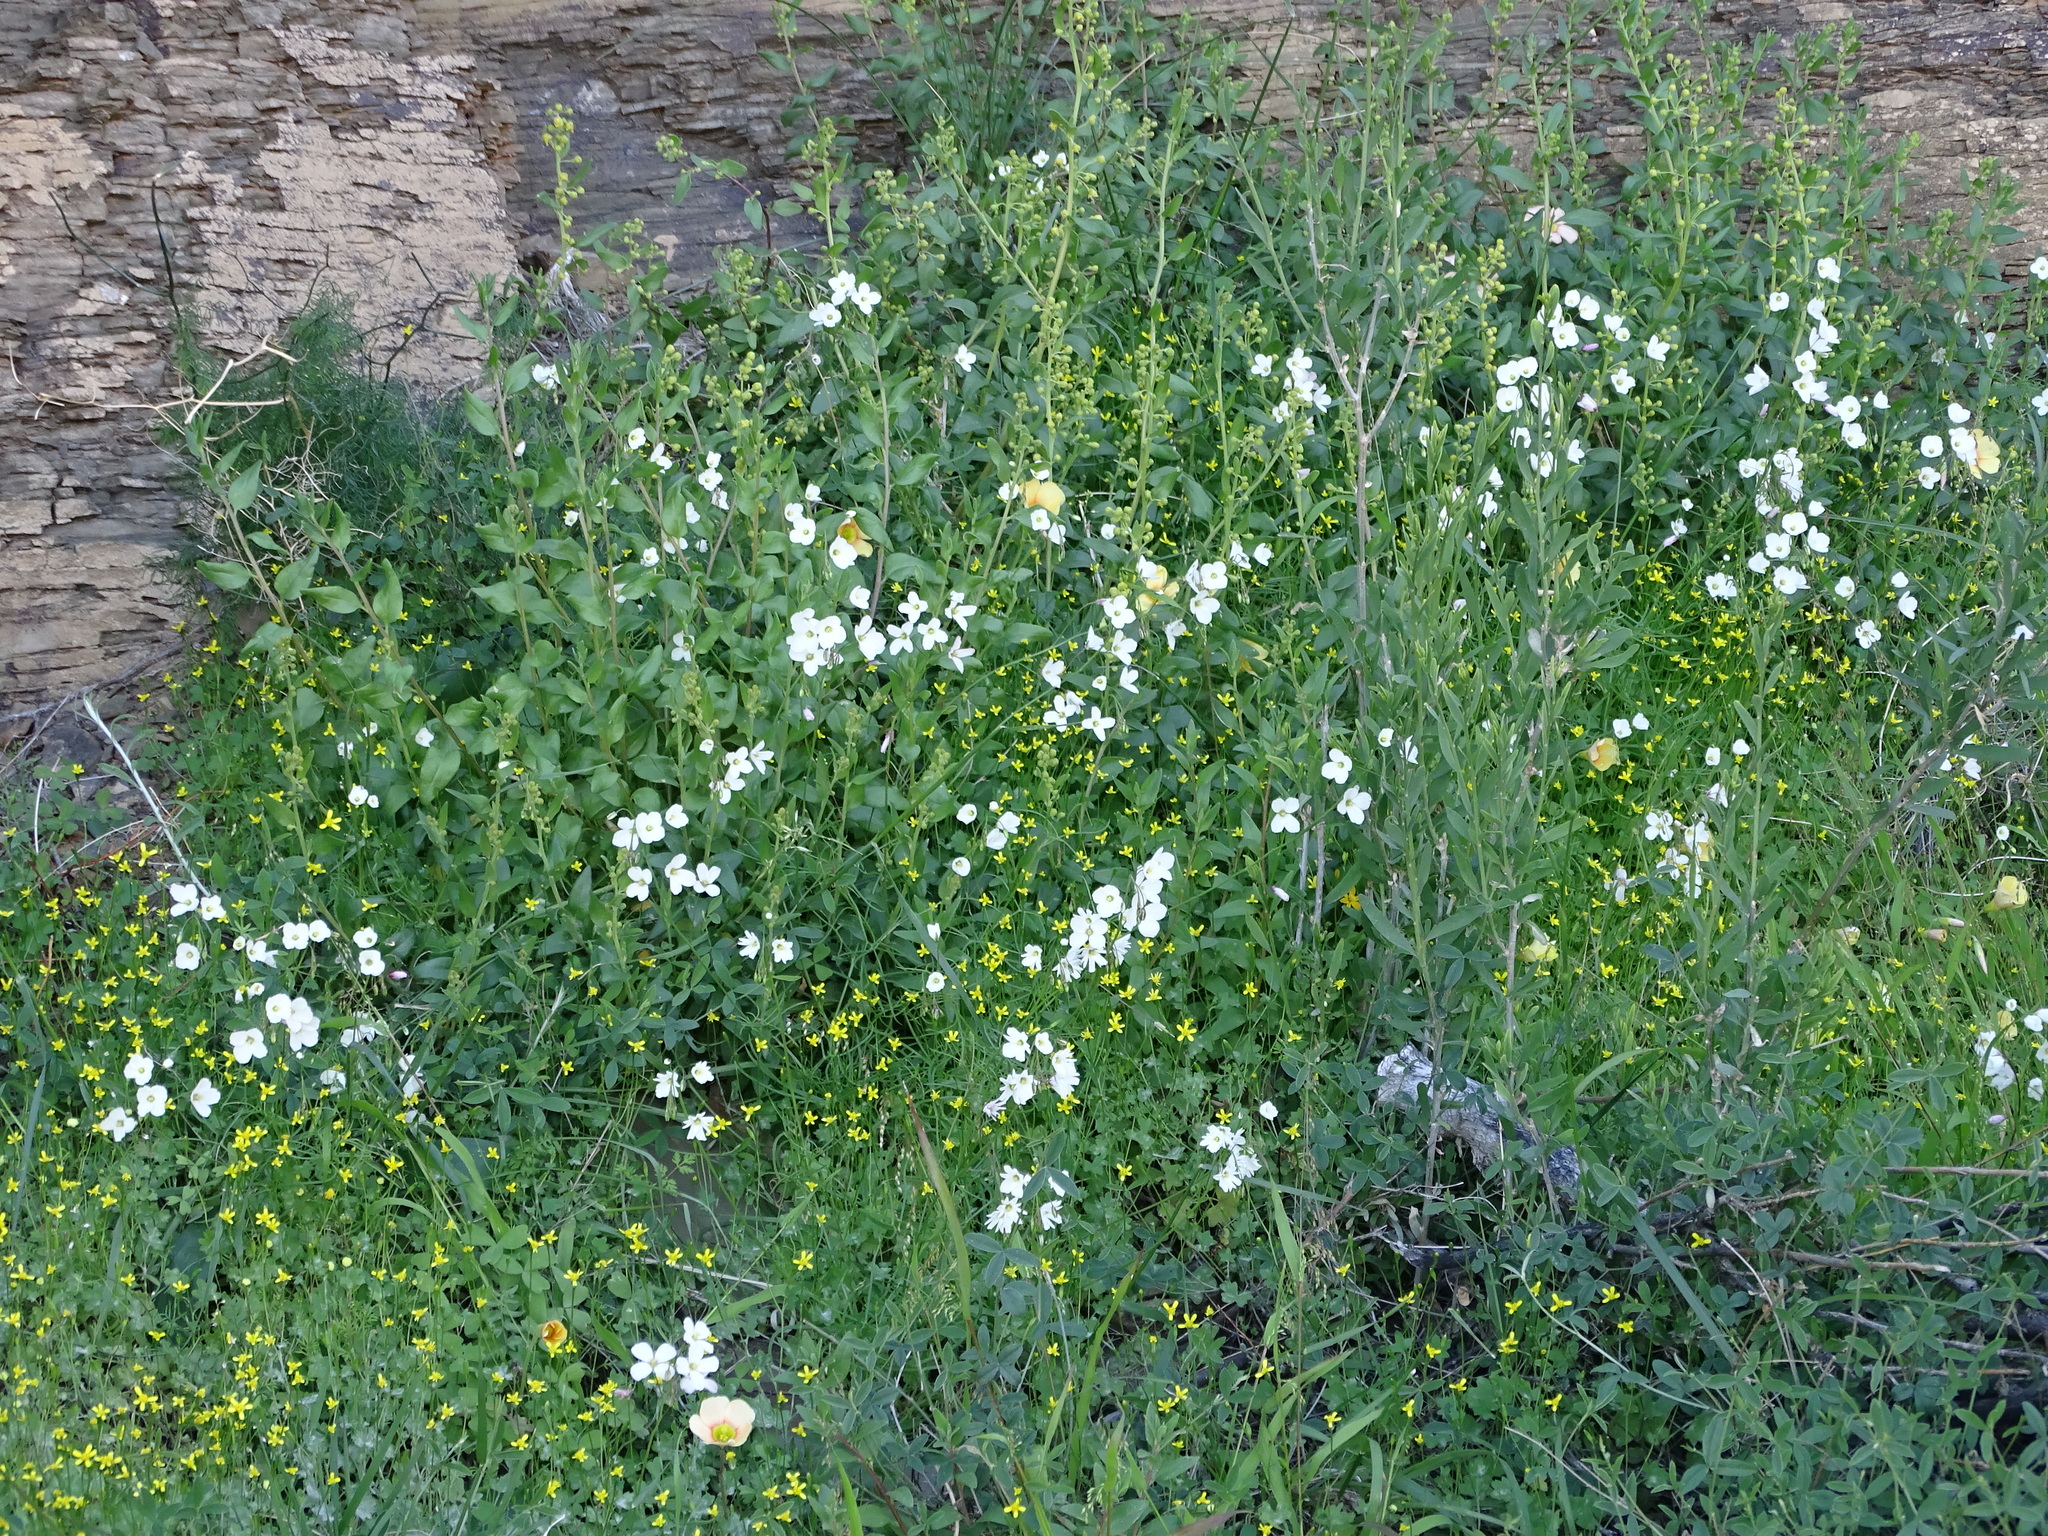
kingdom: Plantae
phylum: Tracheophyta
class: Magnoliopsida
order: Brassicales
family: Brassicaceae
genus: Heliophila
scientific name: Heliophila crithmifolia
